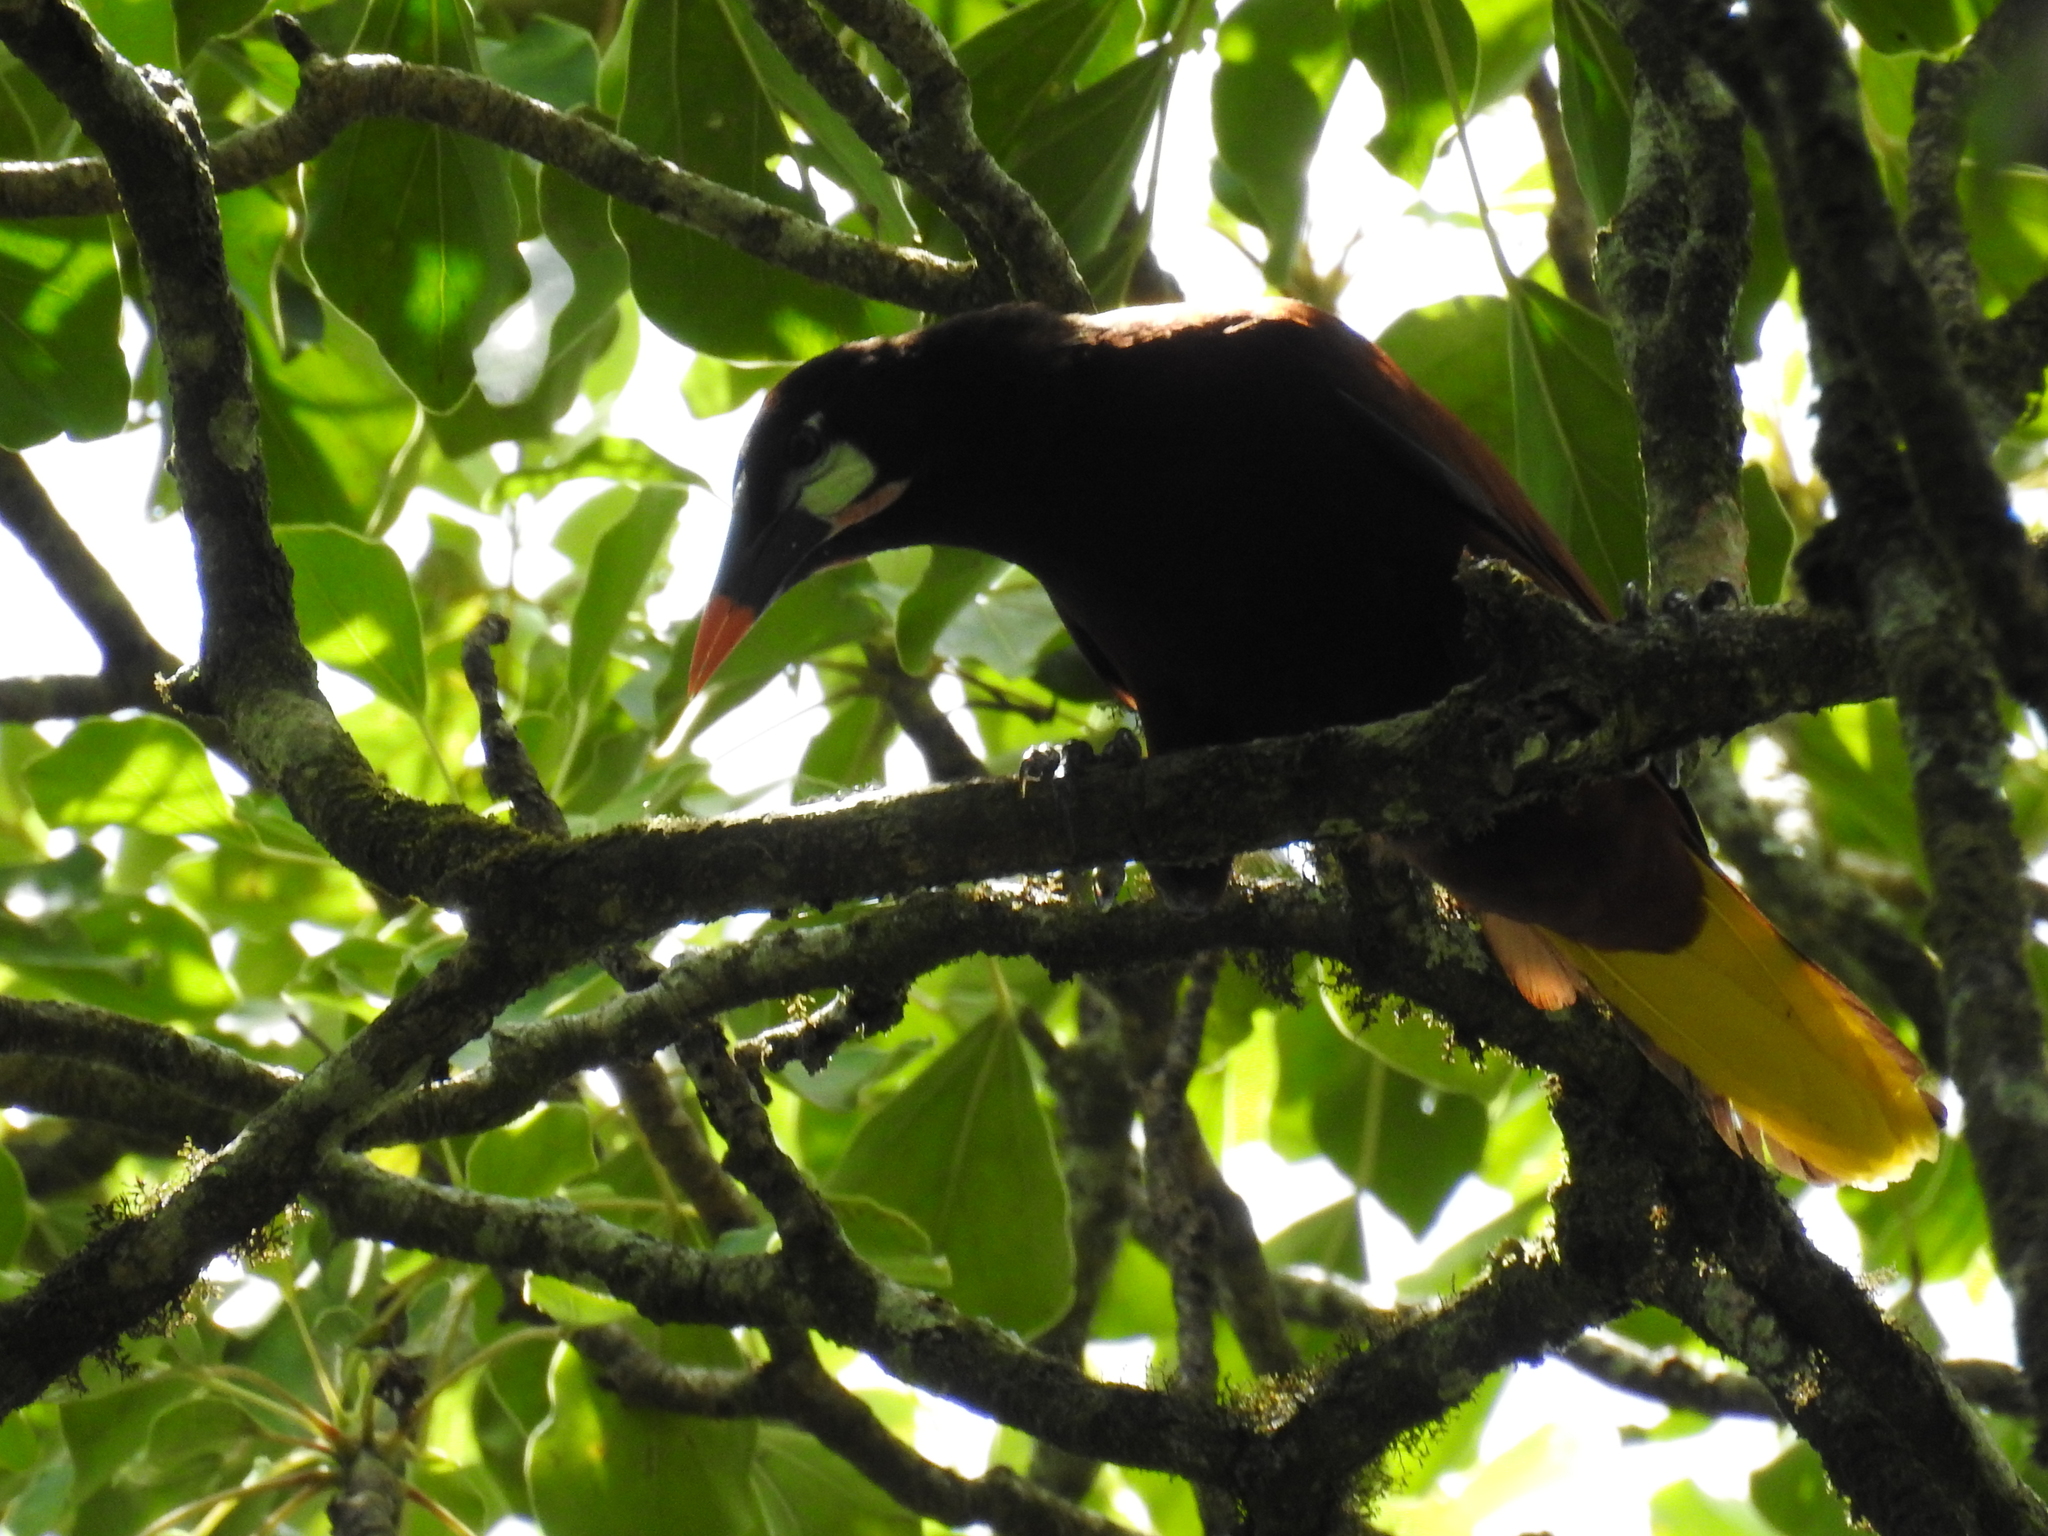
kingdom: Animalia
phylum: Chordata
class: Aves
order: Passeriformes
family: Icteridae
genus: Psarocolius
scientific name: Psarocolius montezuma
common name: Montezuma oropendola
